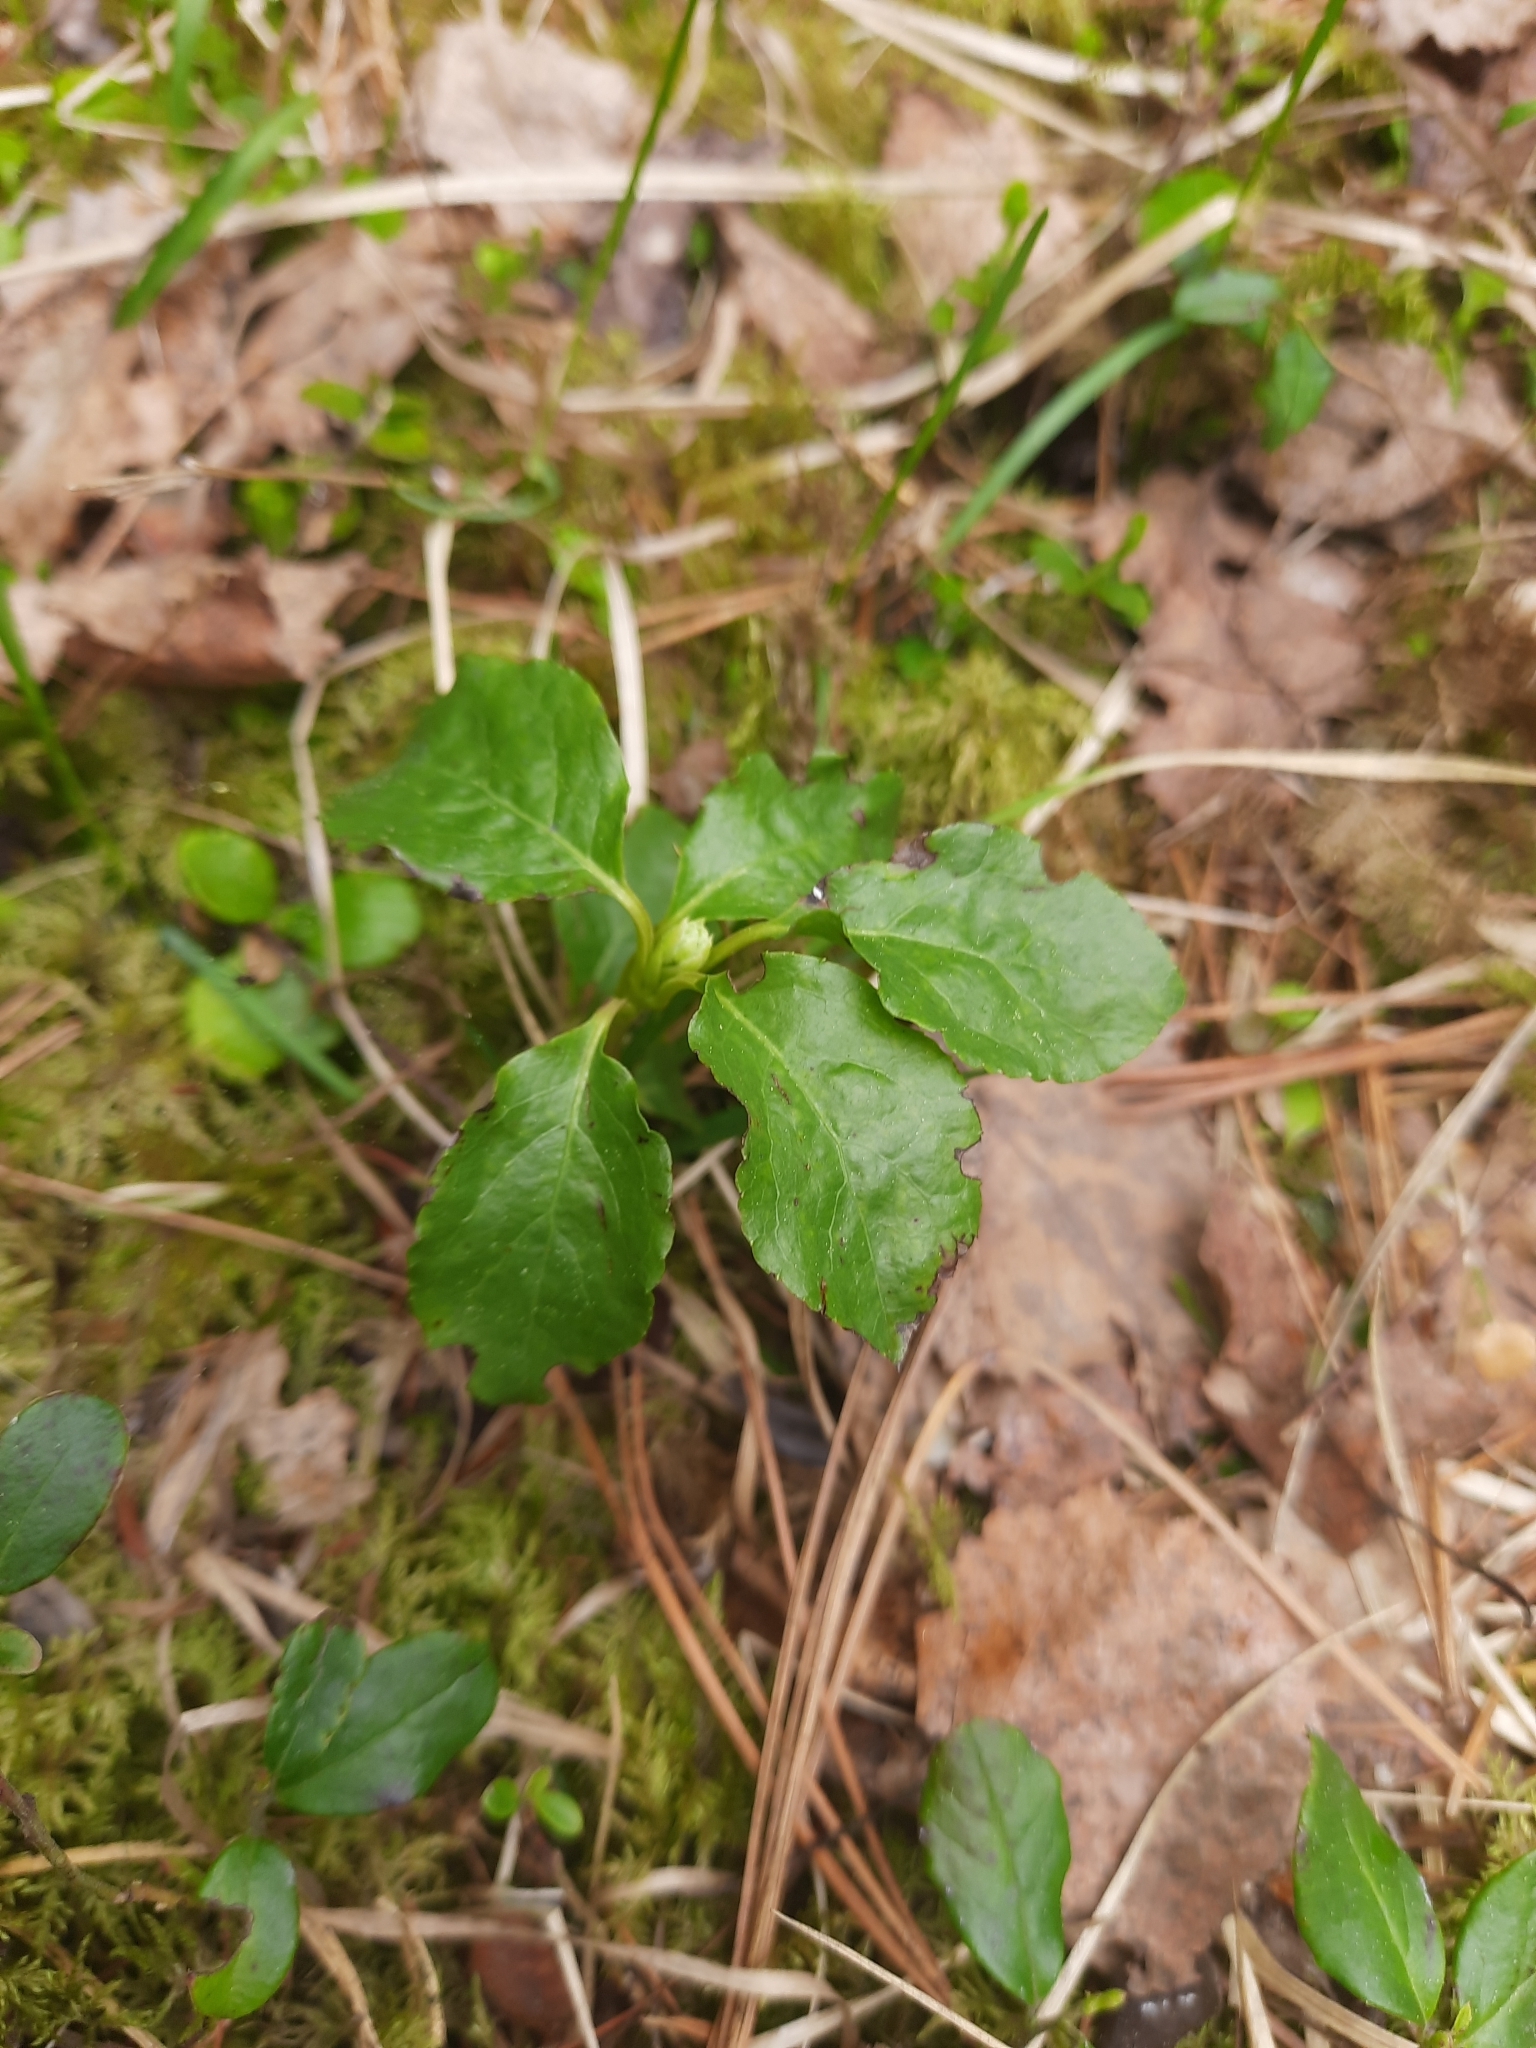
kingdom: Plantae
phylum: Tracheophyta
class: Magnoliopsida
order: Ericales
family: Ericaceae
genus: Orthilia
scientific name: Orthilia secunda
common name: One-sided orthilia
